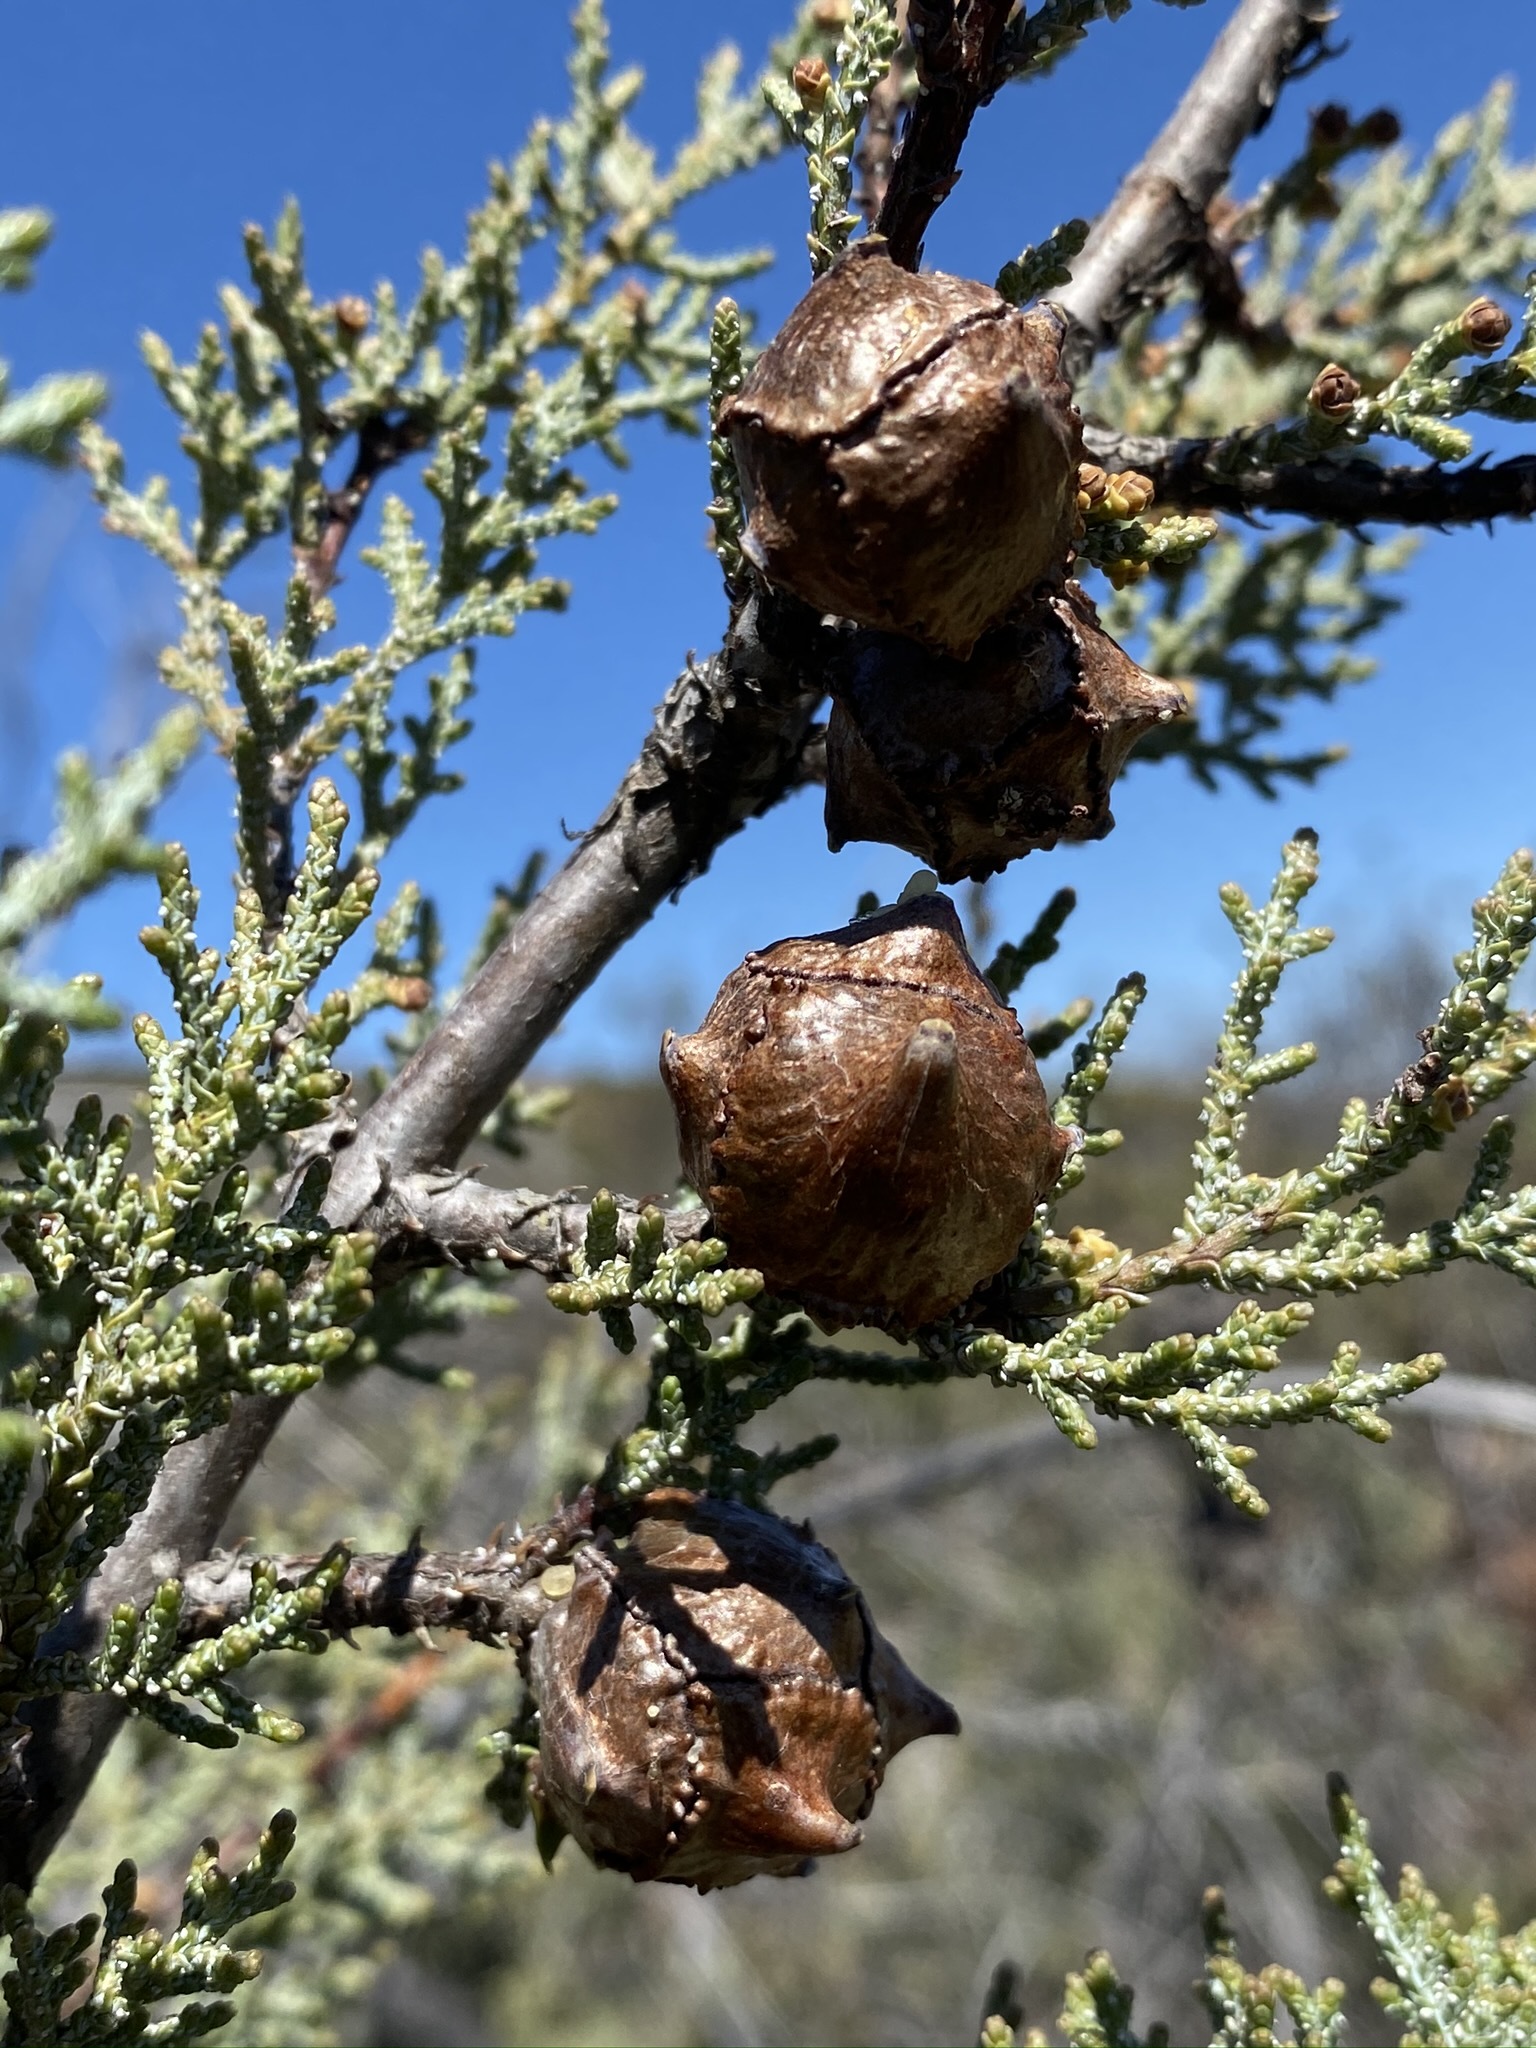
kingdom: Plantae
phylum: Tracheophyta
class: Pinopsida
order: Pinales
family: Cupressaceae
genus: Cupressus
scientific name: Cupressus macnabiana bis
